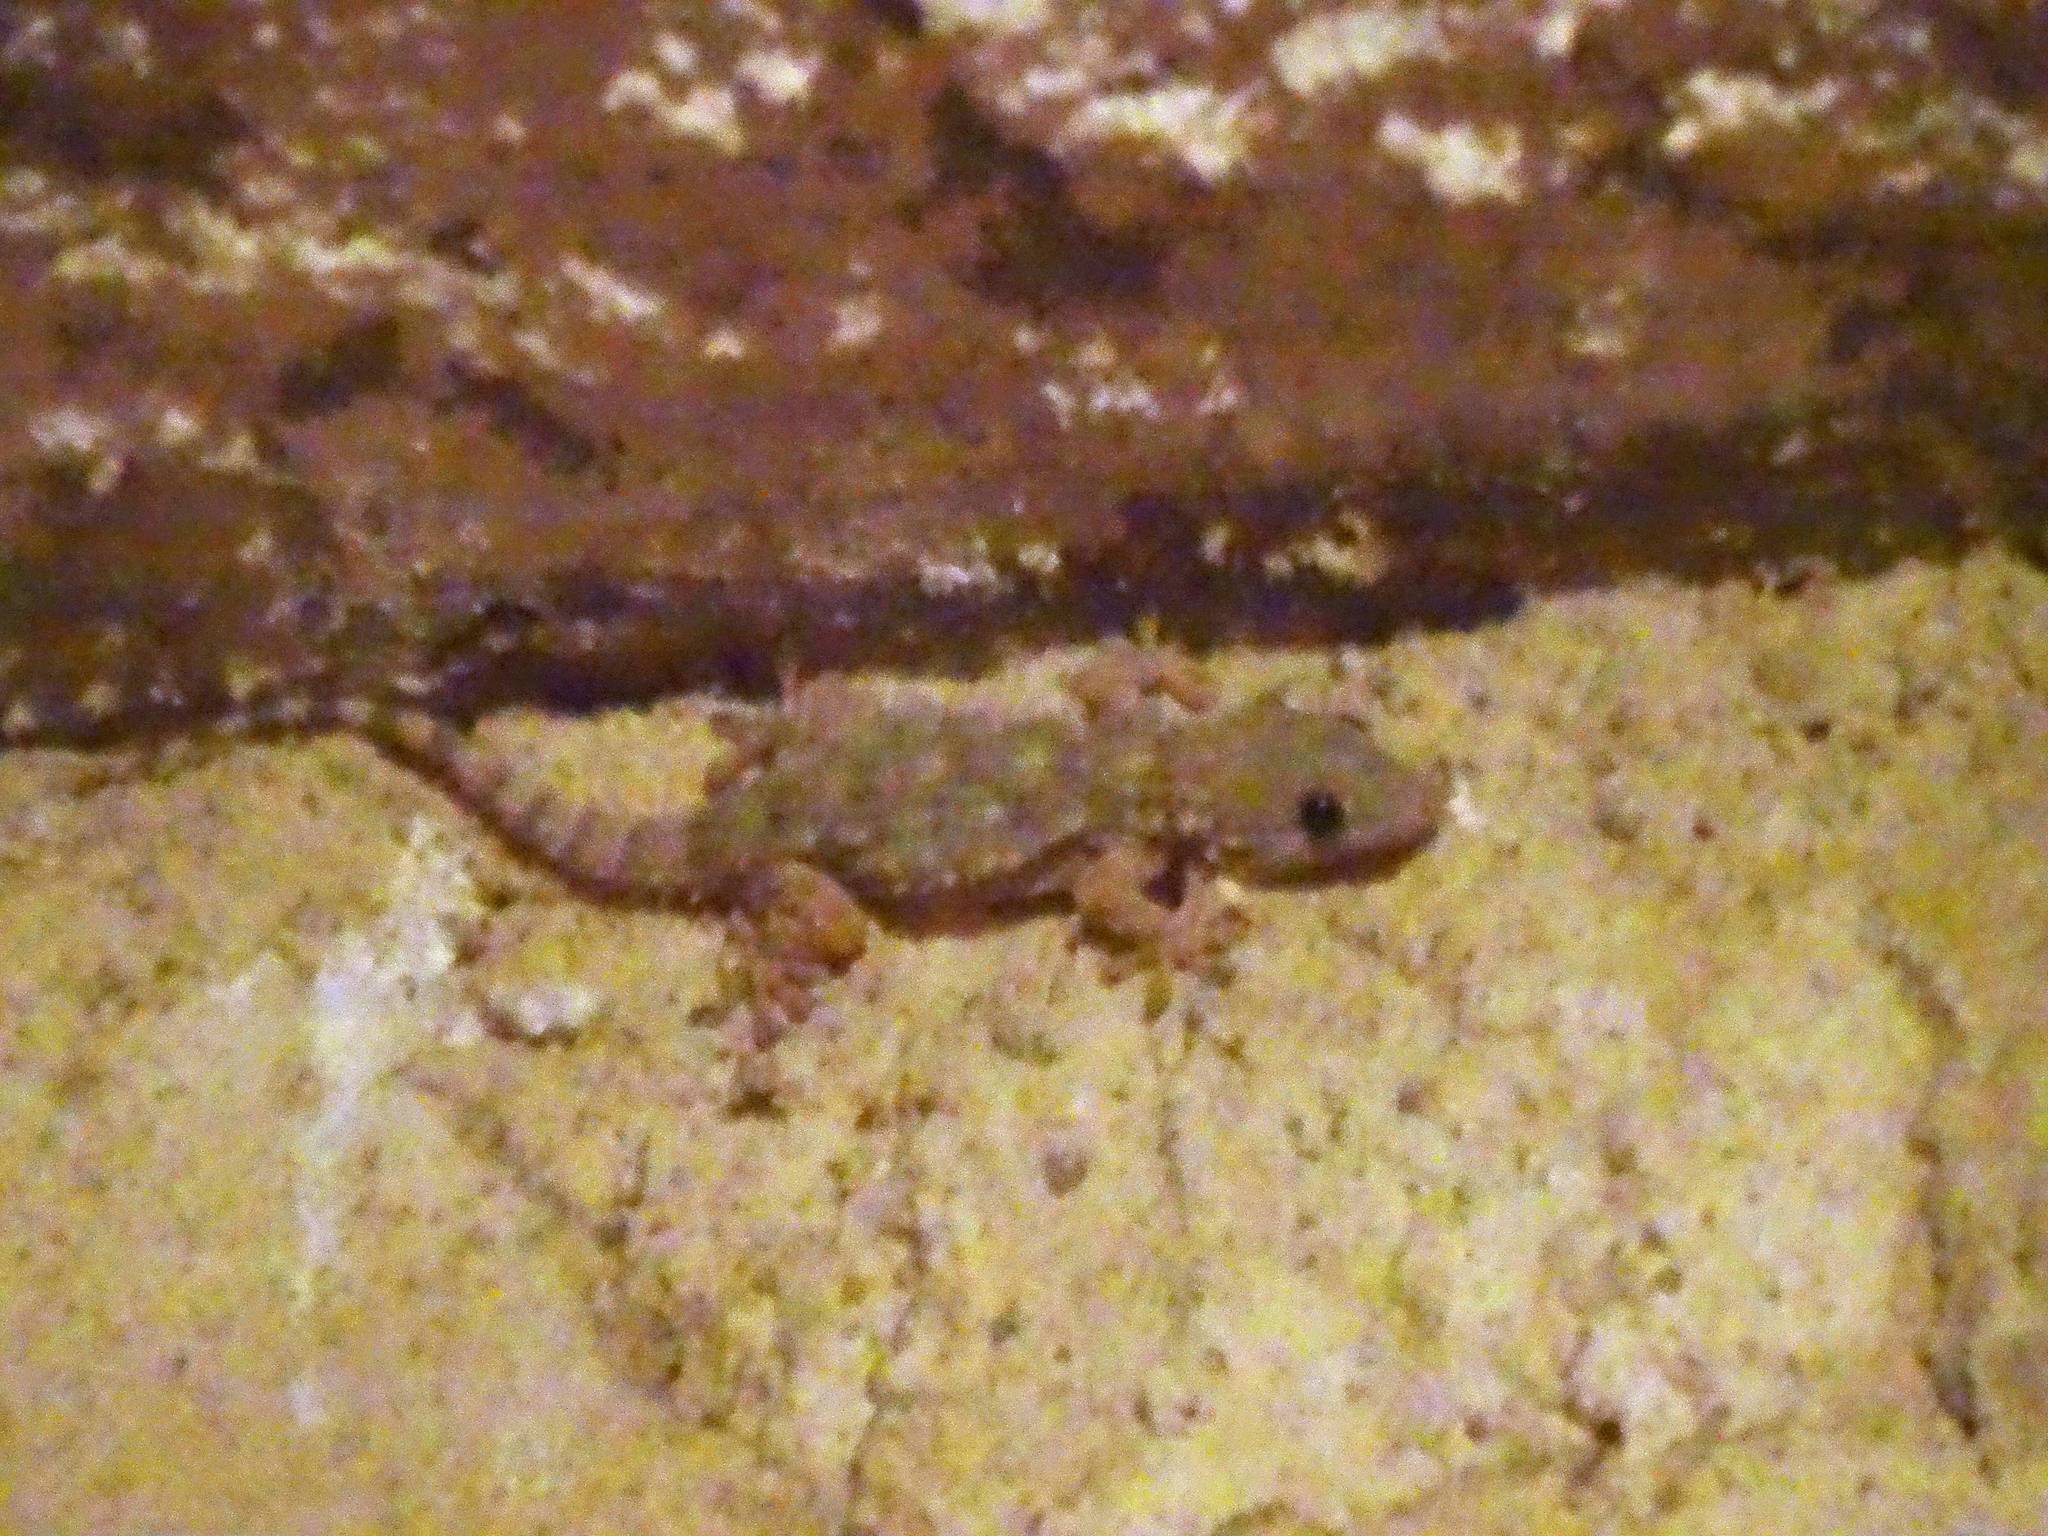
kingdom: Animalia
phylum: Chordata
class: Squamata
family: Phyllodactylidae
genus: Tarentola
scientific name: Tarentola mauritanica
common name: Moorish gecko
